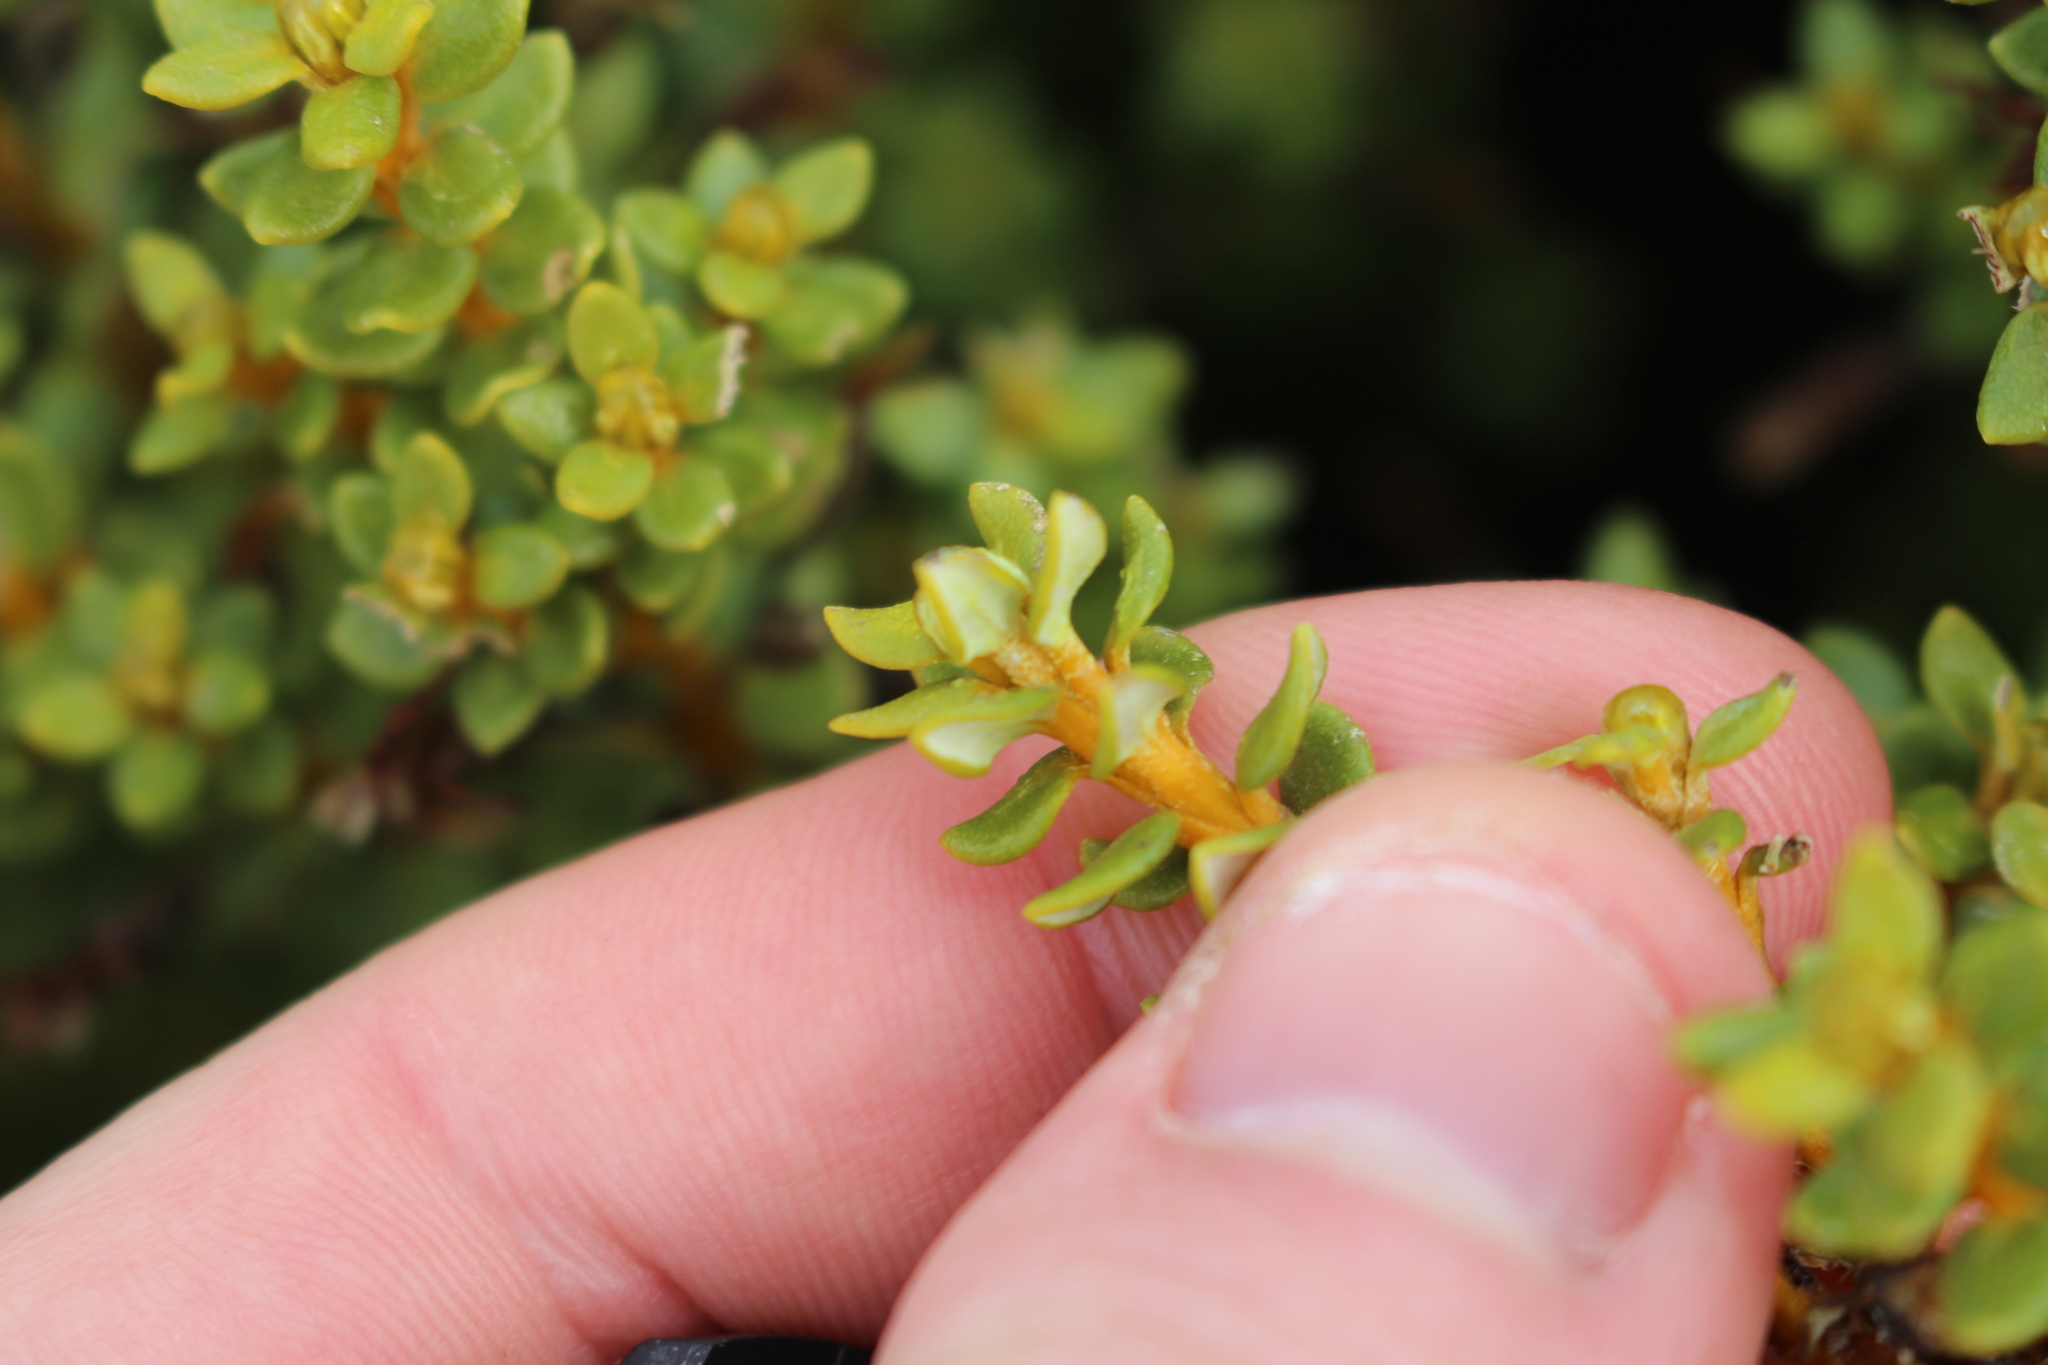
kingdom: Plantae
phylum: Tracheophyta
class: Magnoliopsida
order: Asterales
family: Asteraceae
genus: Olearia
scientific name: Olearia nummularifolia
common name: Sticky daisybush
